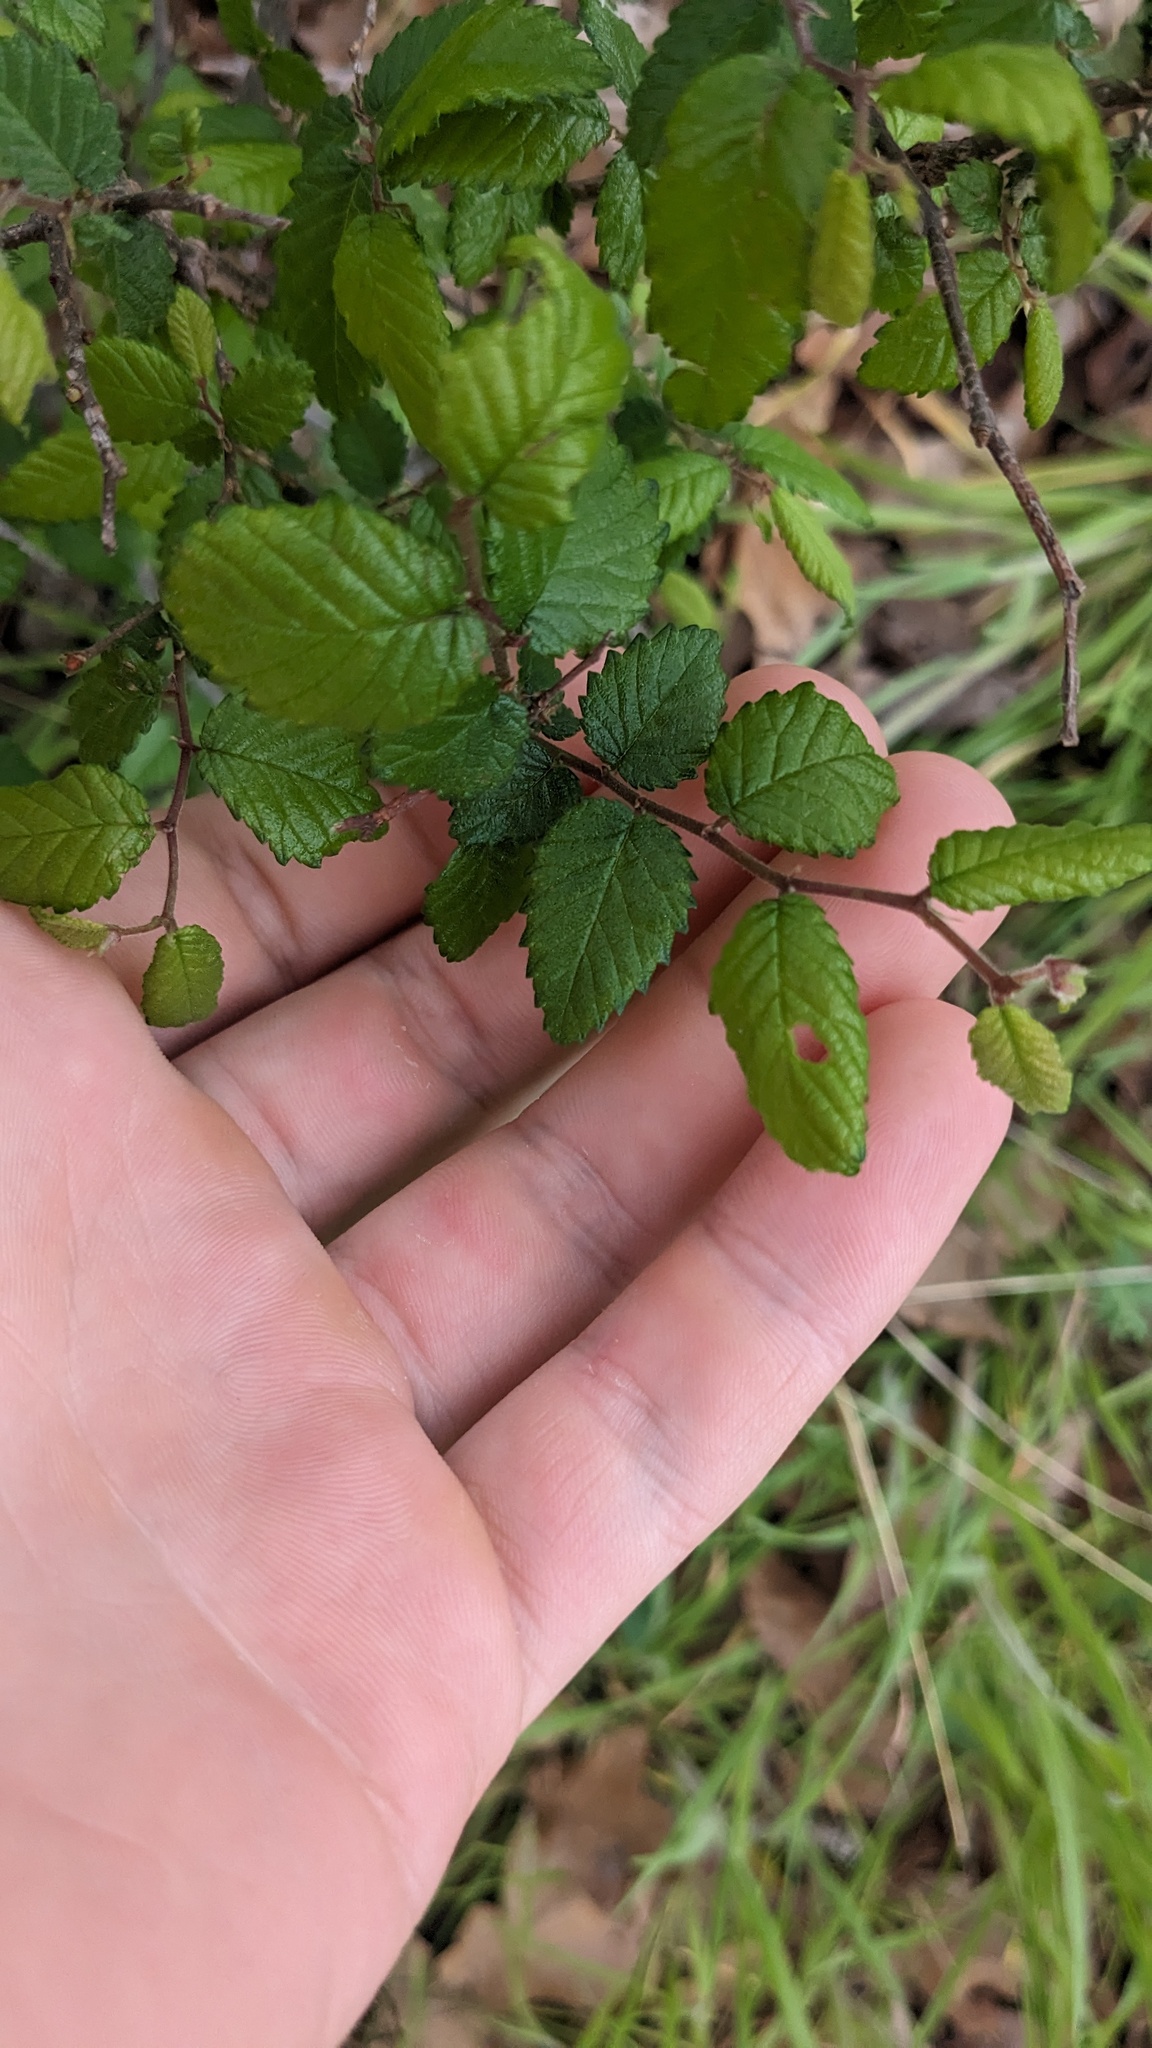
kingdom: Plantae
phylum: Tracheophyta
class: Magnoliopsida
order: Rosales
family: Ulmaceae
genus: Ulmus
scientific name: Ulmus crassifolia
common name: Basket elm
